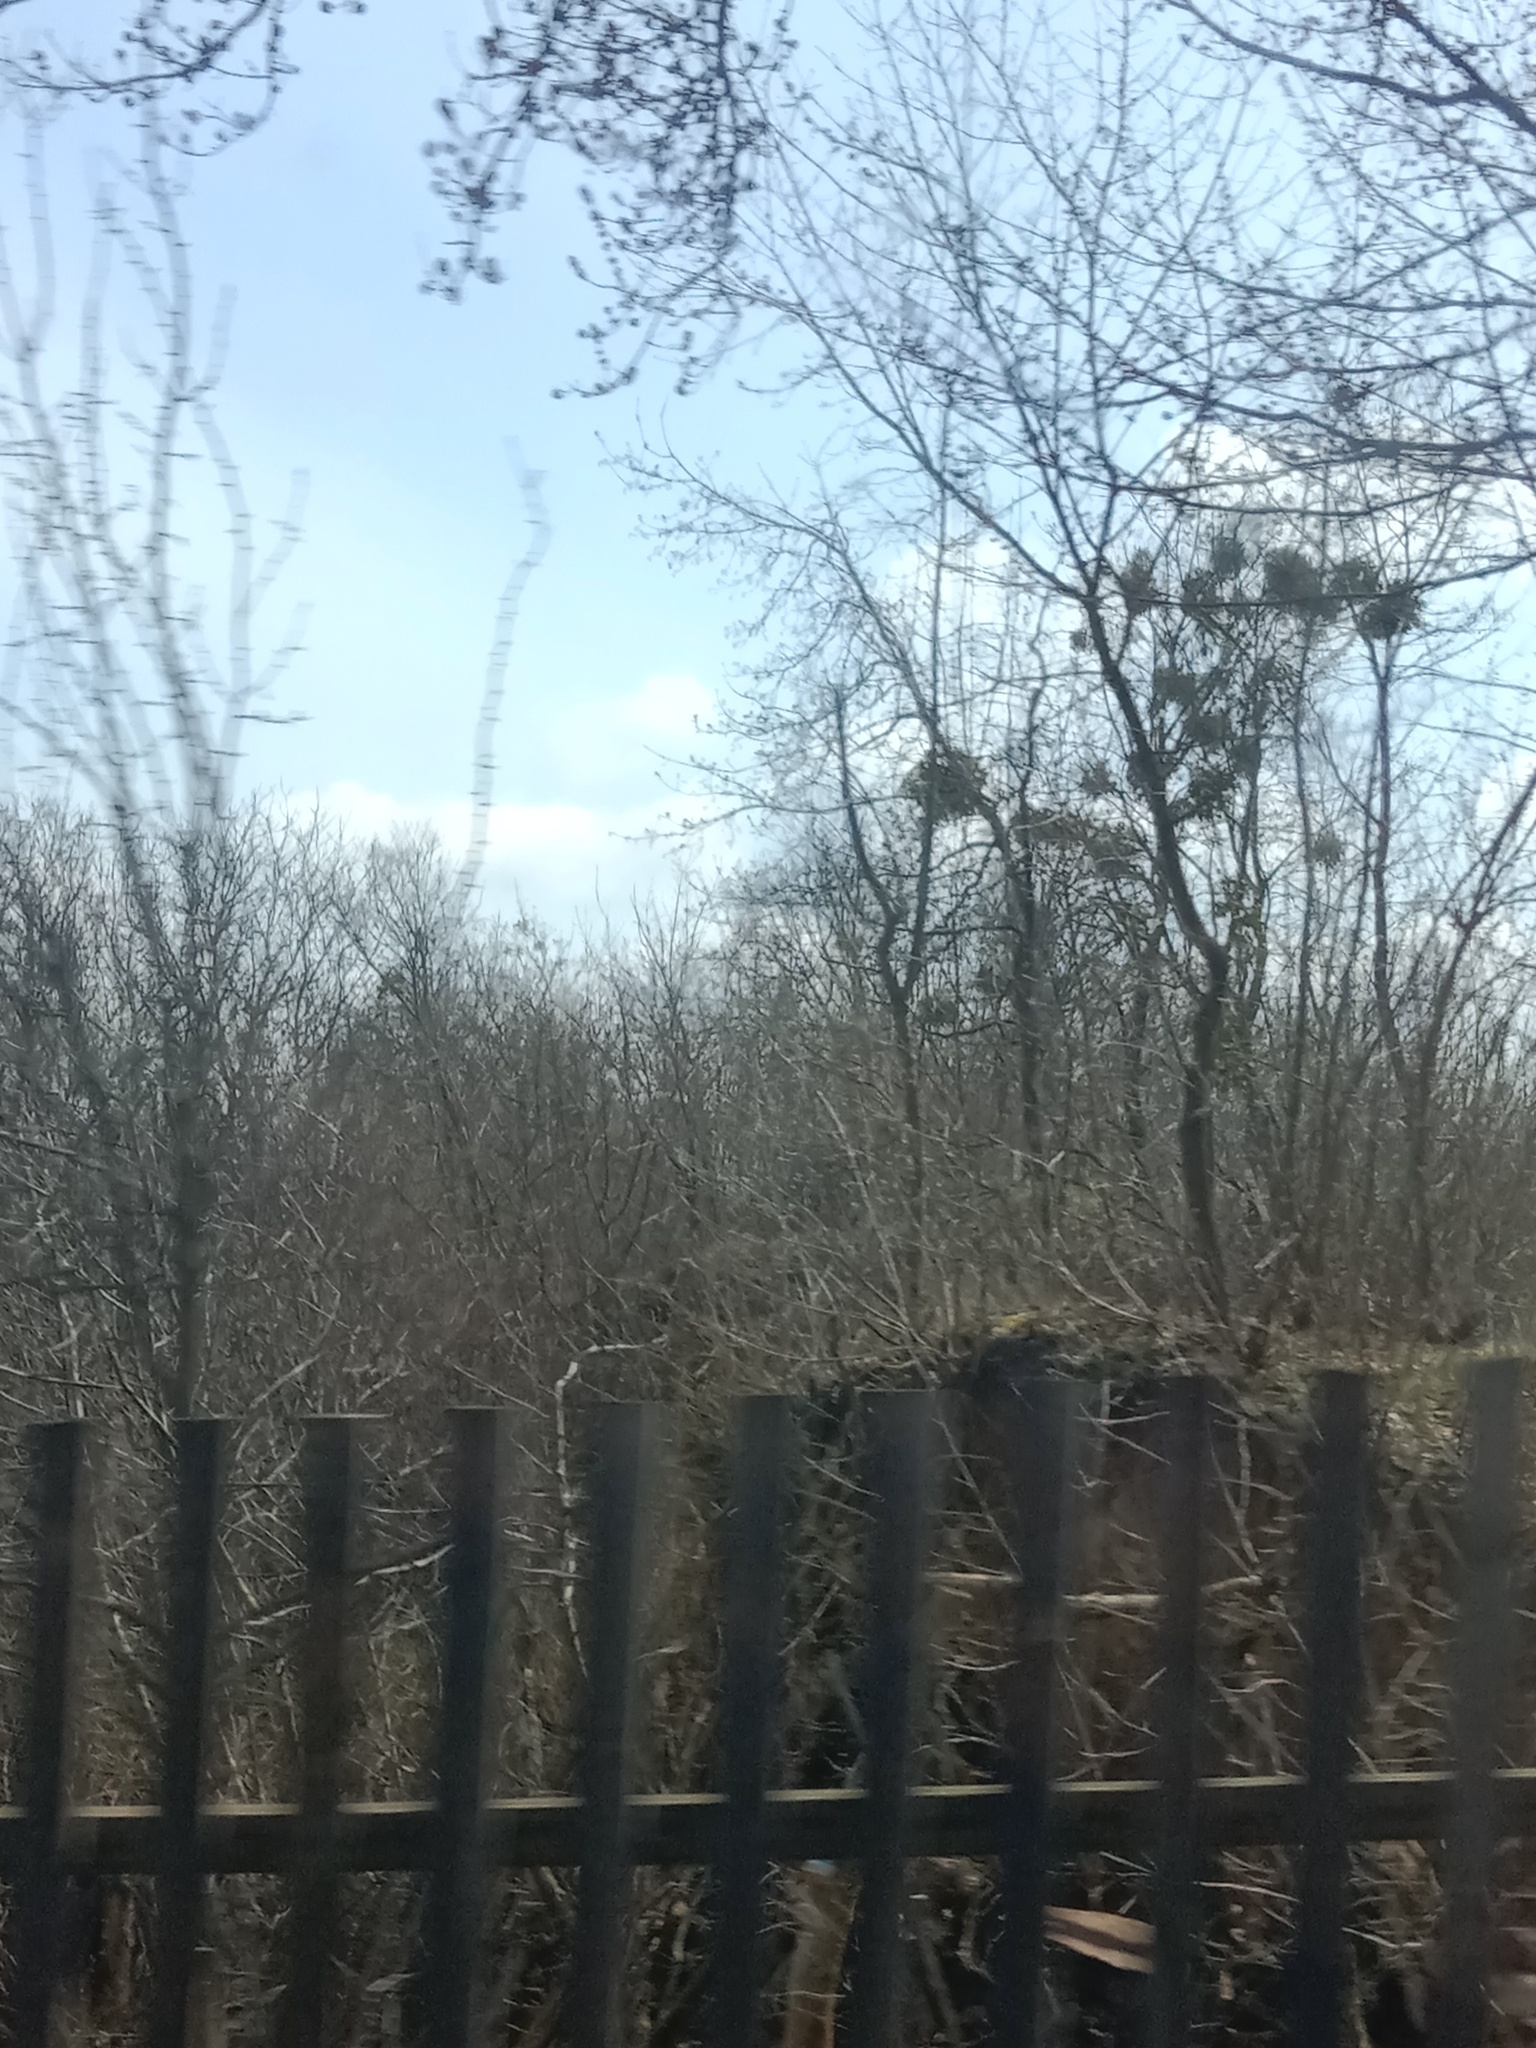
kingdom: Plantae
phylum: Tracheophyta
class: Magnoliopsida
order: Santalales
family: Viscaceae
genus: Viscum
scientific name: Viscum album
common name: Mistletoe
